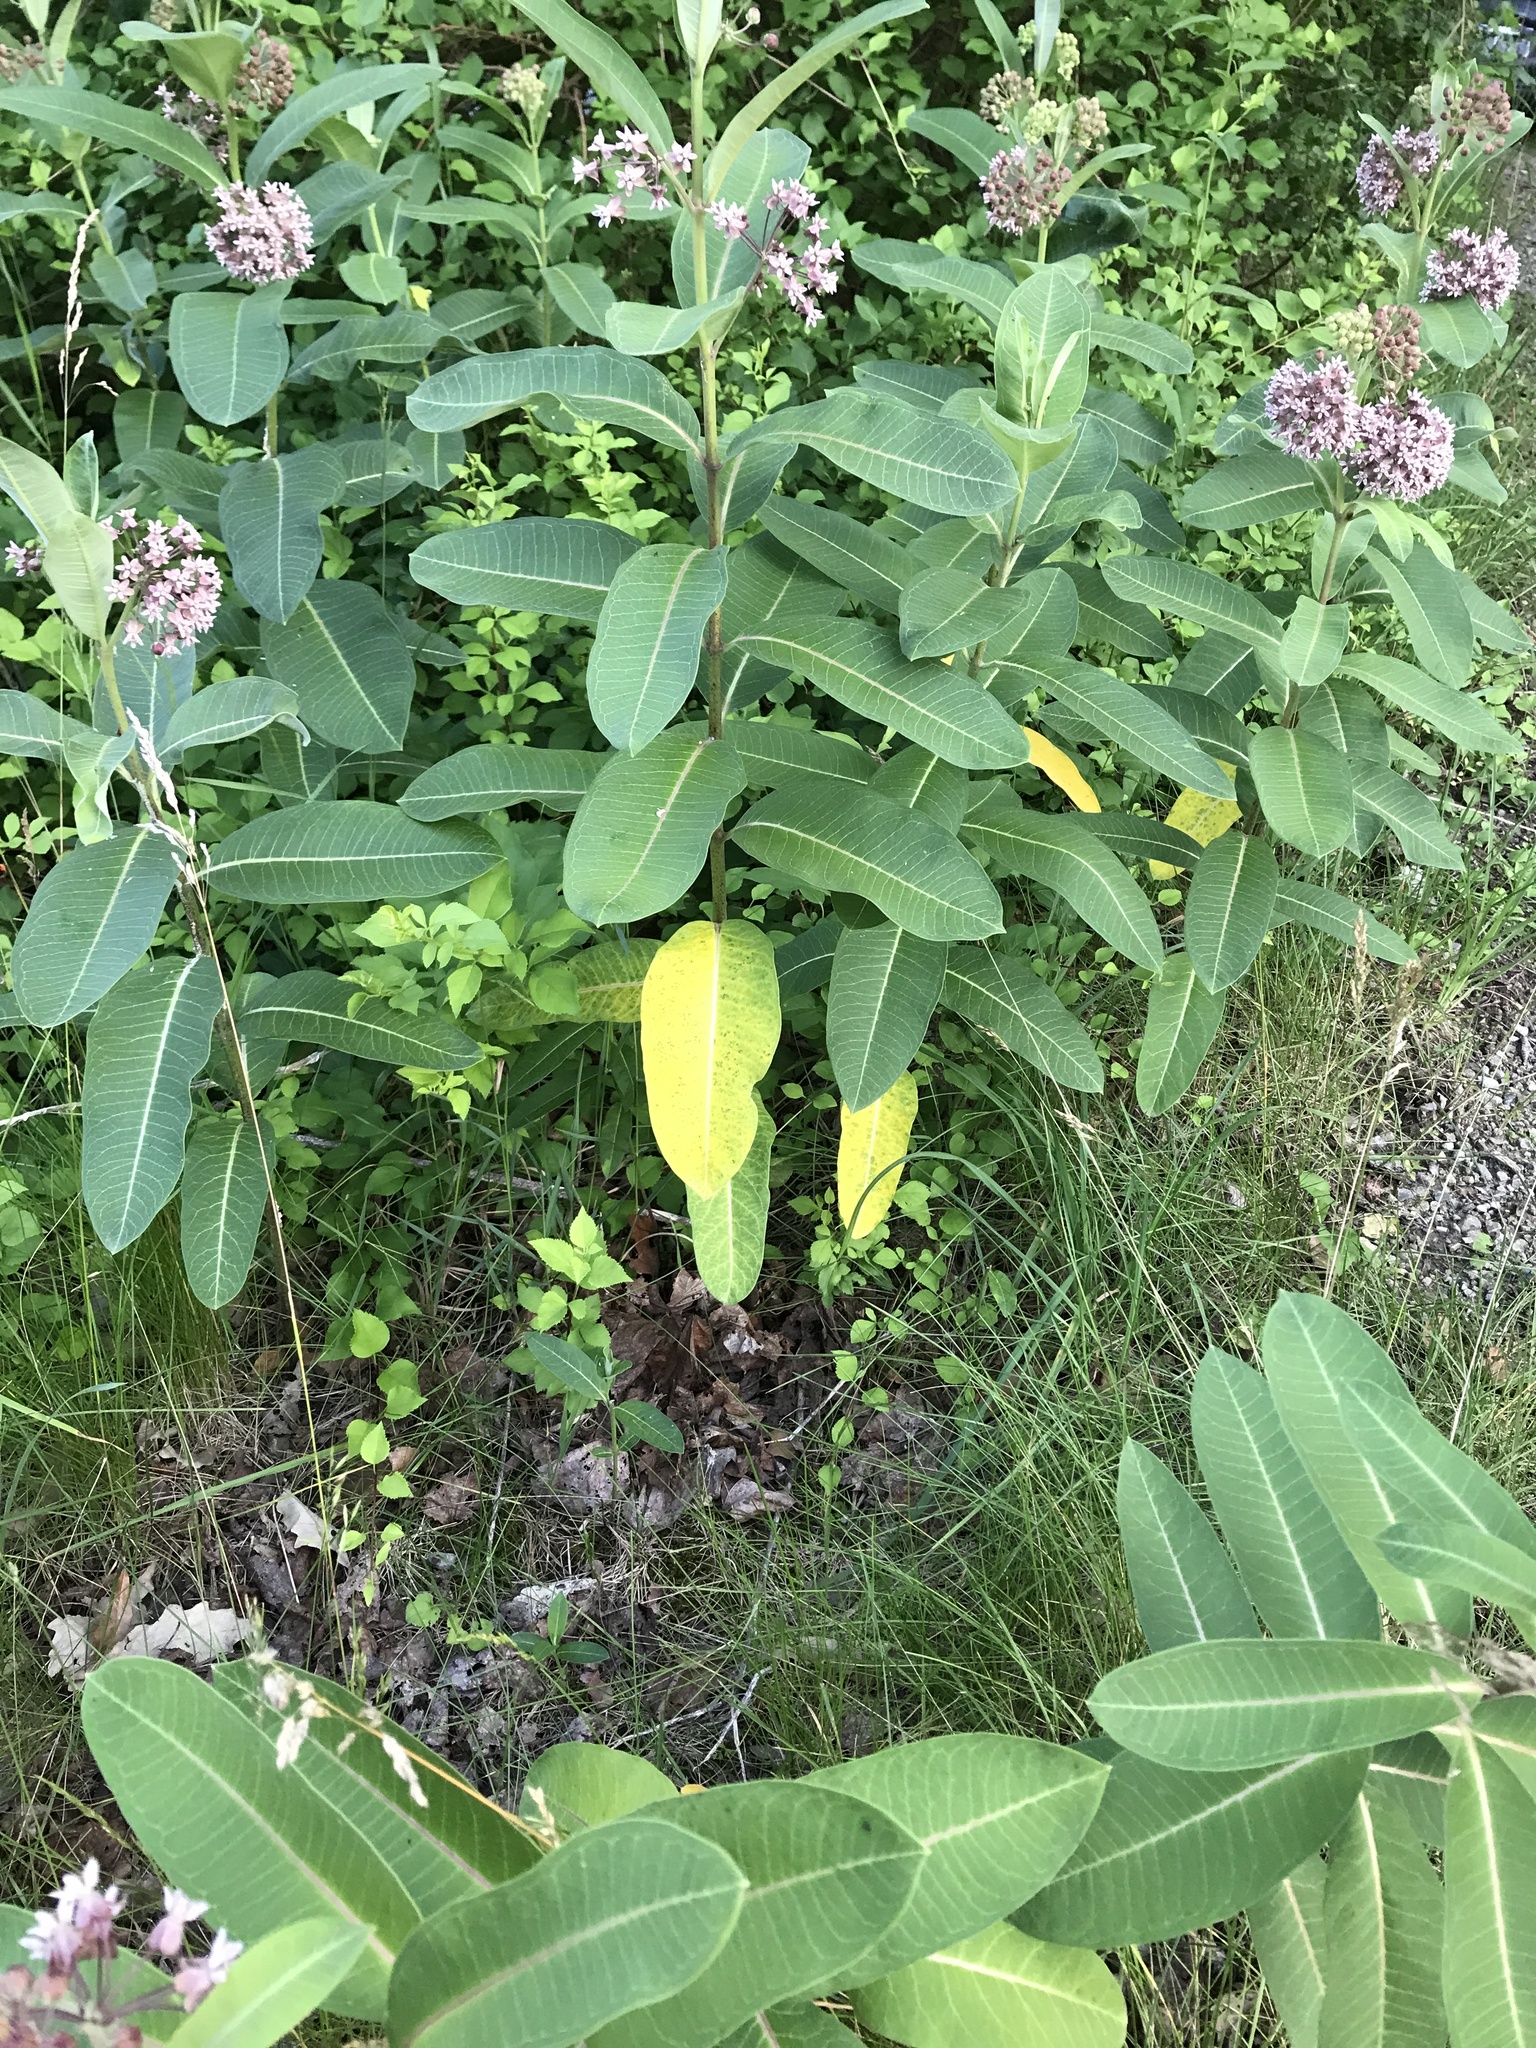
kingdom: Plantae
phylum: Tracheophyta
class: Magnoliopsida
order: Gentianales
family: Apocynaceae
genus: Asclepias
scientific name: Asclepias syriaca
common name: Common milkweed
